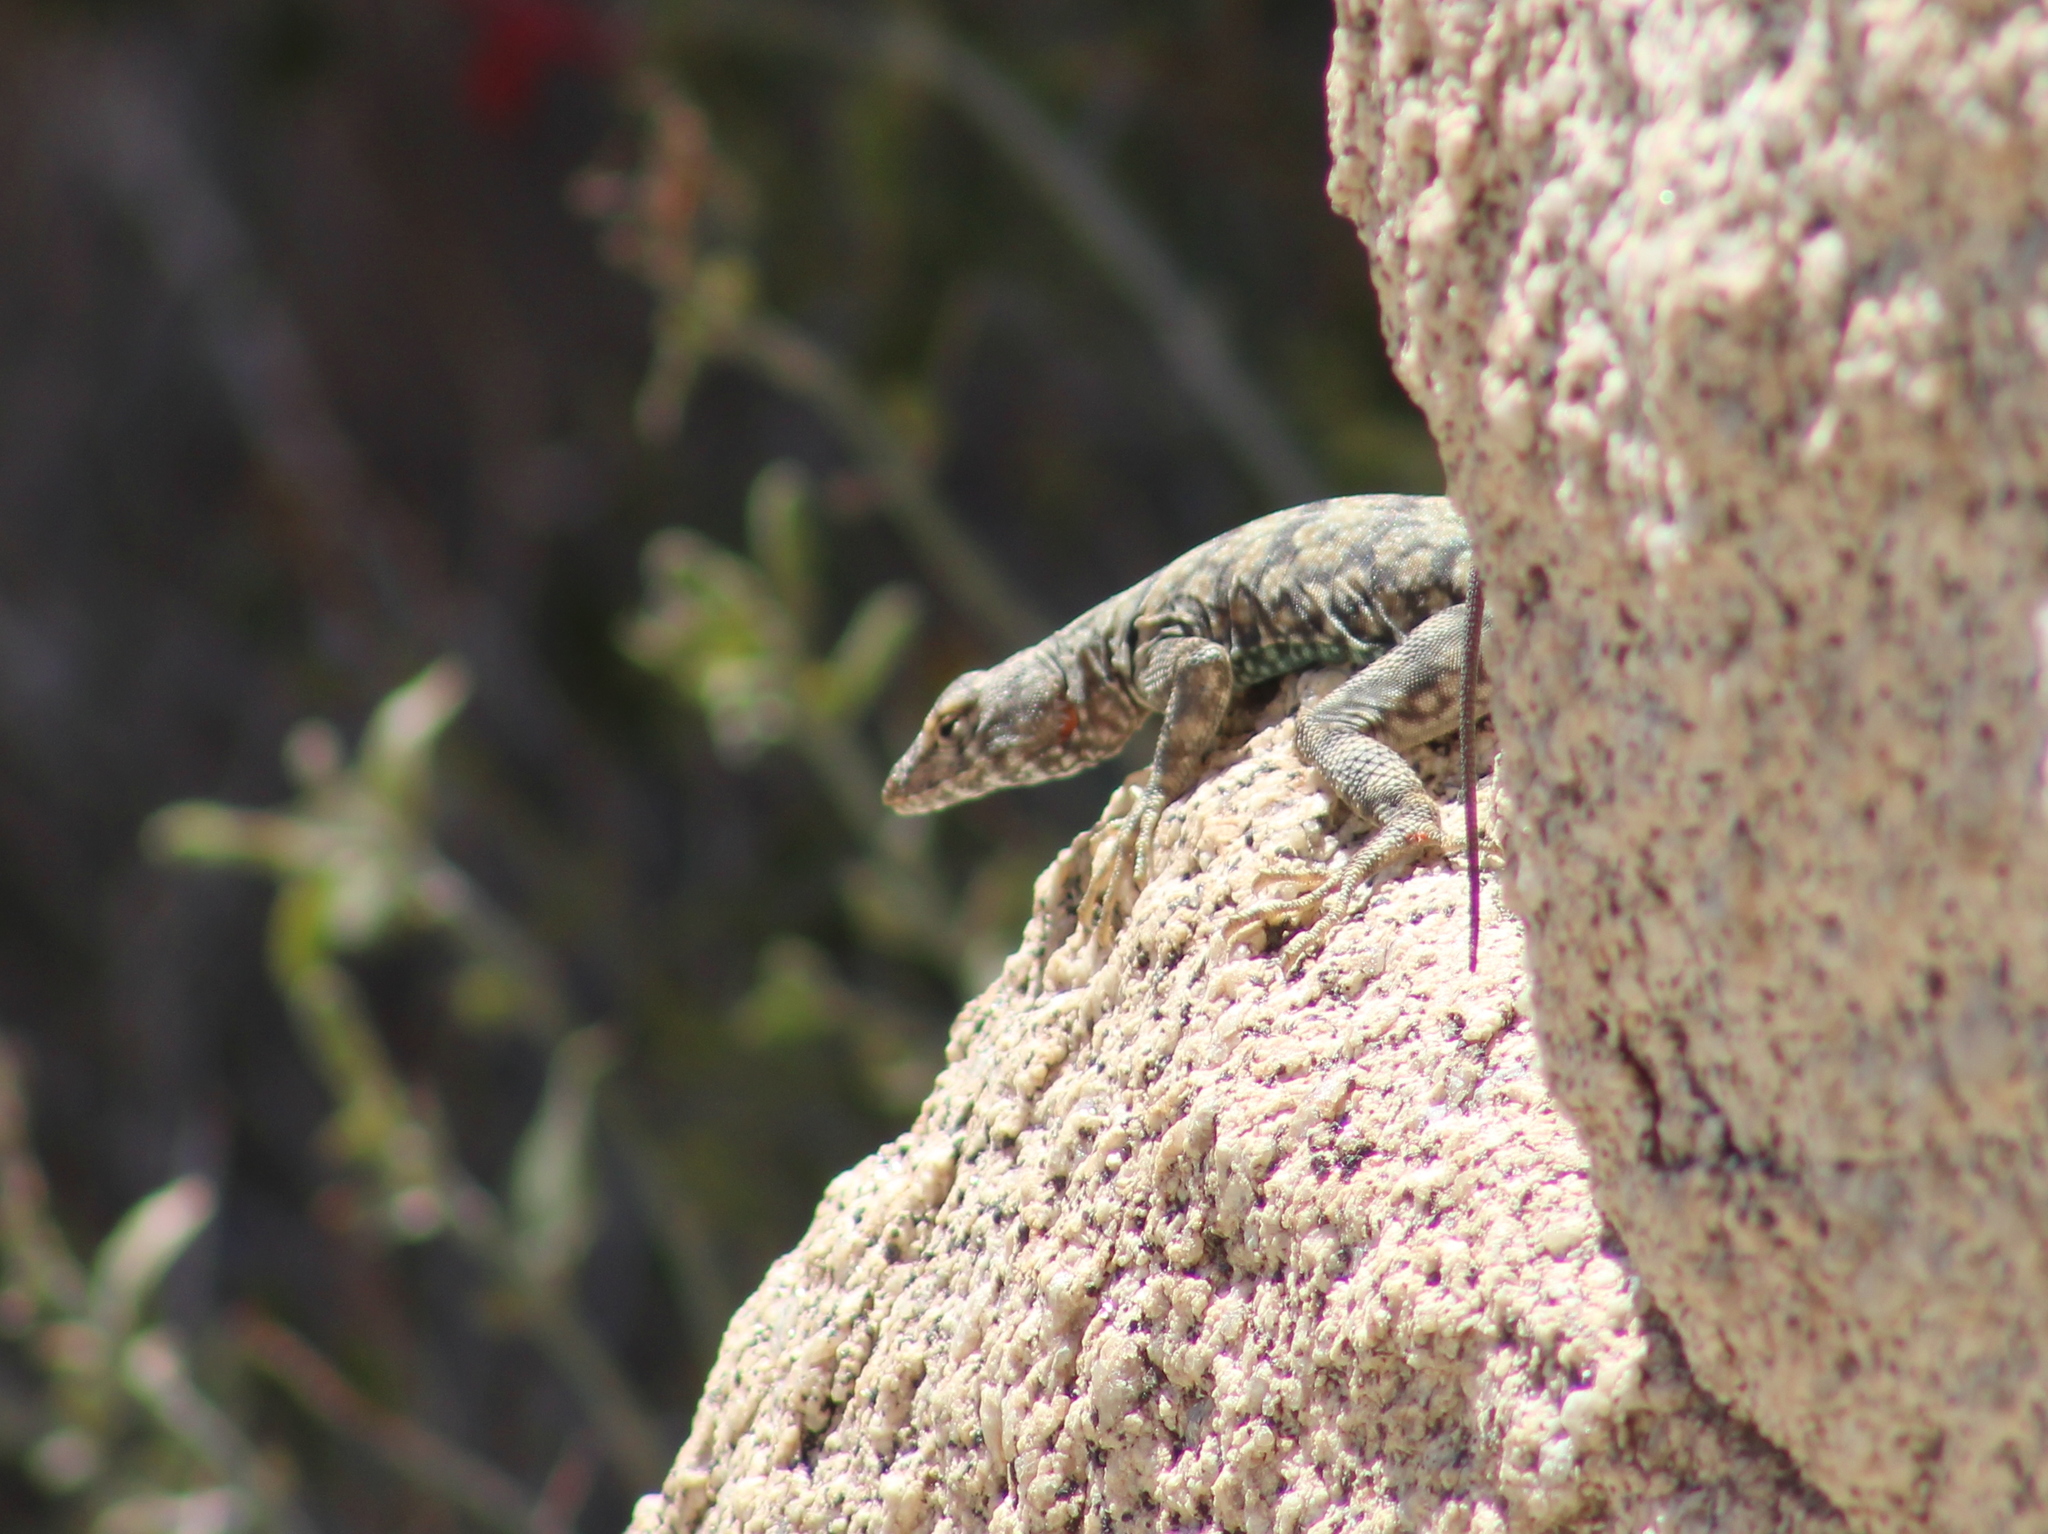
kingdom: Animalia
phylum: Chordata
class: Squamata
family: Phrynosomatidae
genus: Petrosaurus
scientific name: Petrosaurus mearnsi
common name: Banded rock lizard
